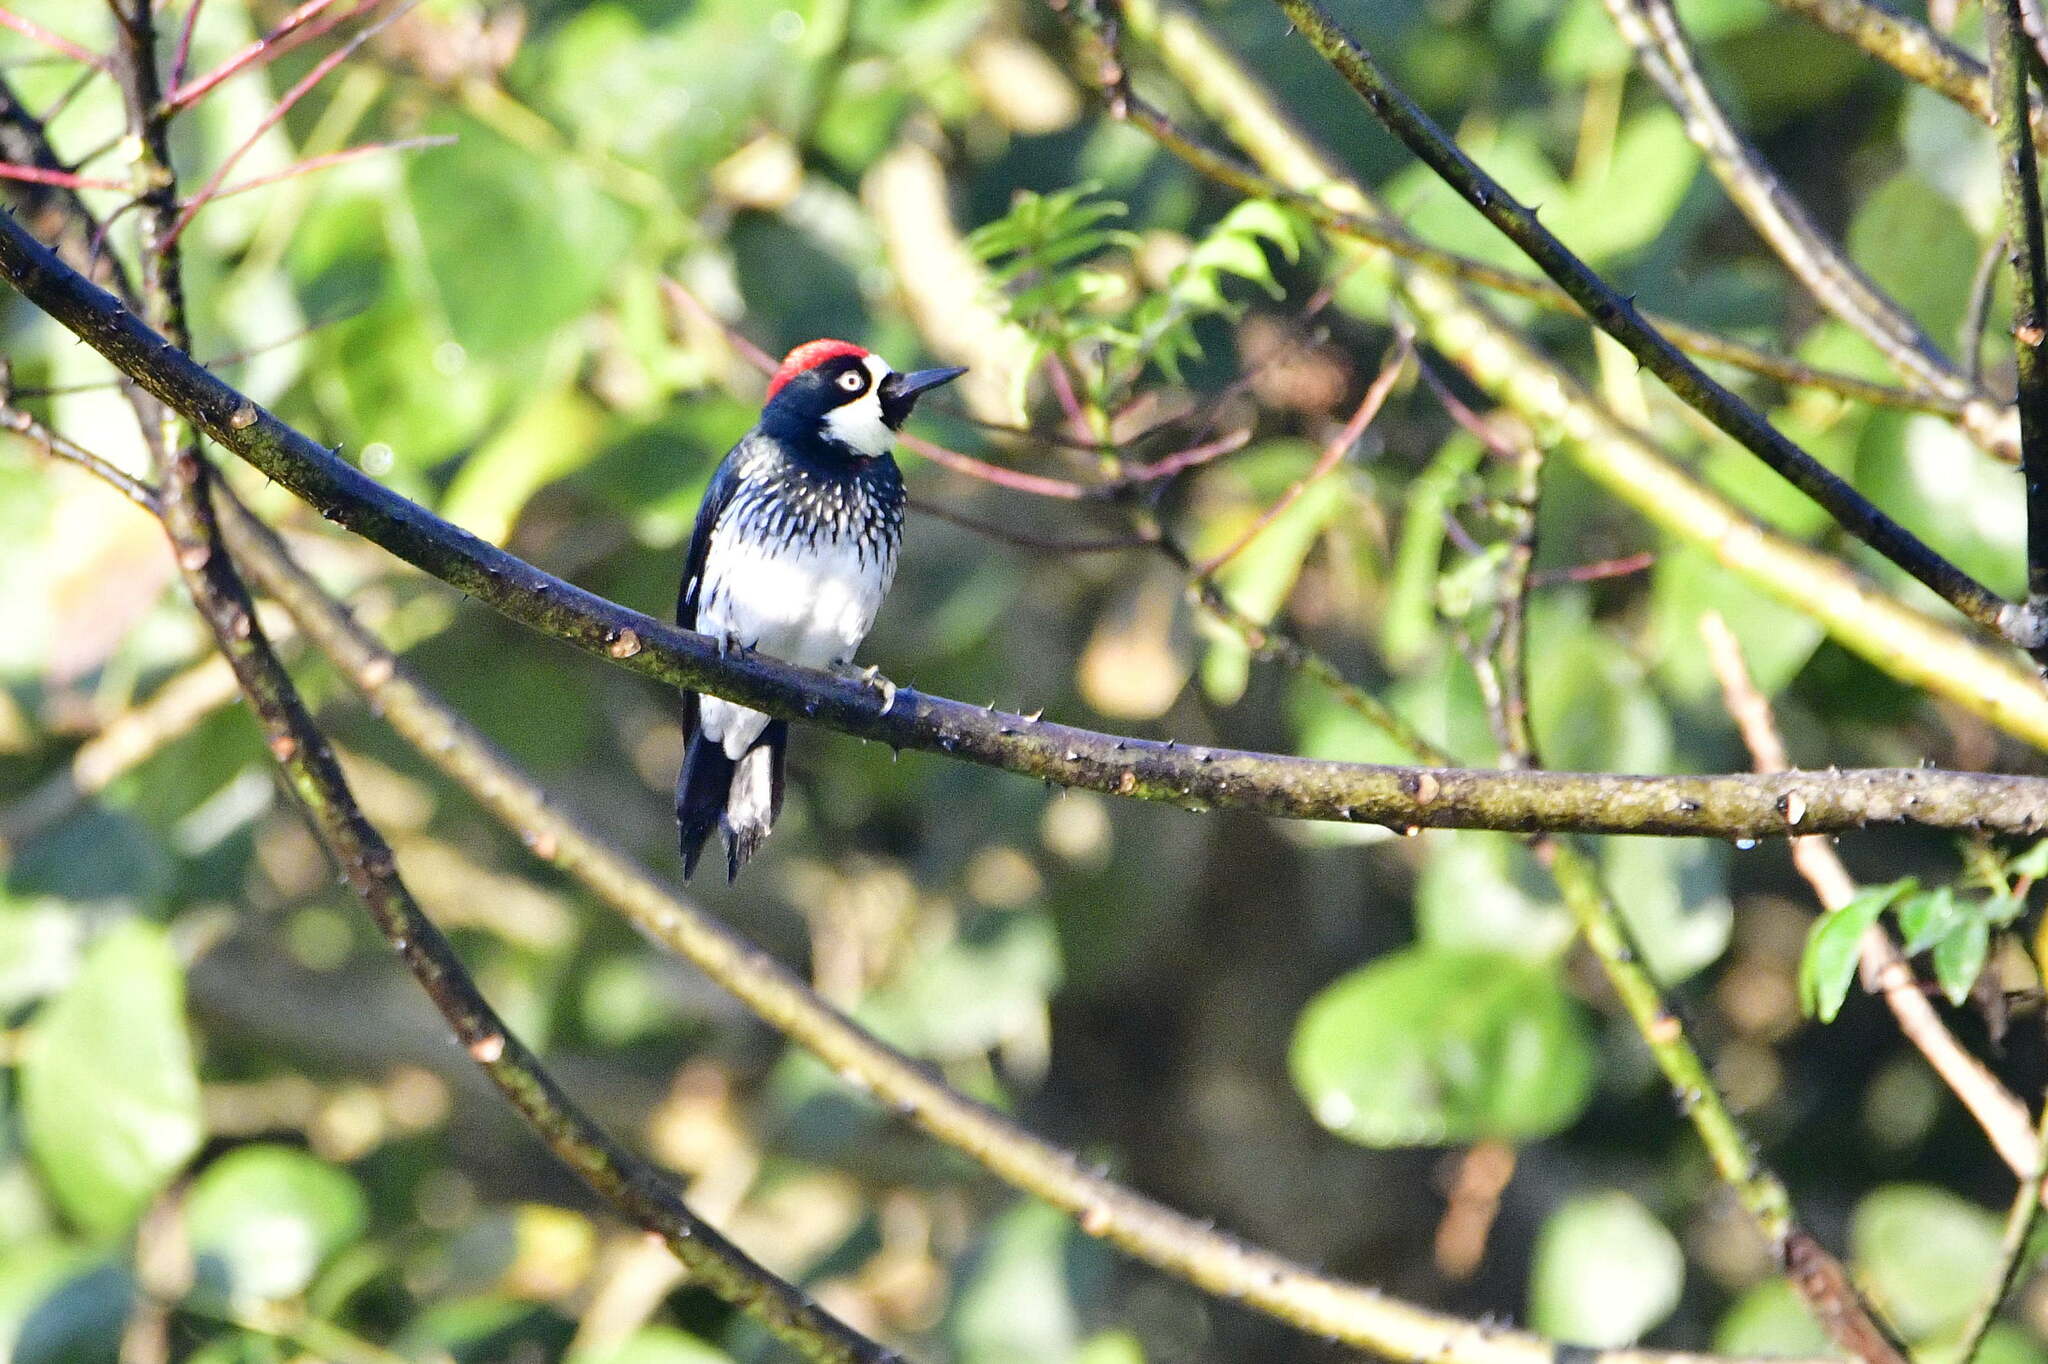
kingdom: Animalia
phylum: Chordata
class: Aves
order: Piciformes
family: Picidae
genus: Melanerpes
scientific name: Melanerpes formicivorus
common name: Acorn woodpecker
